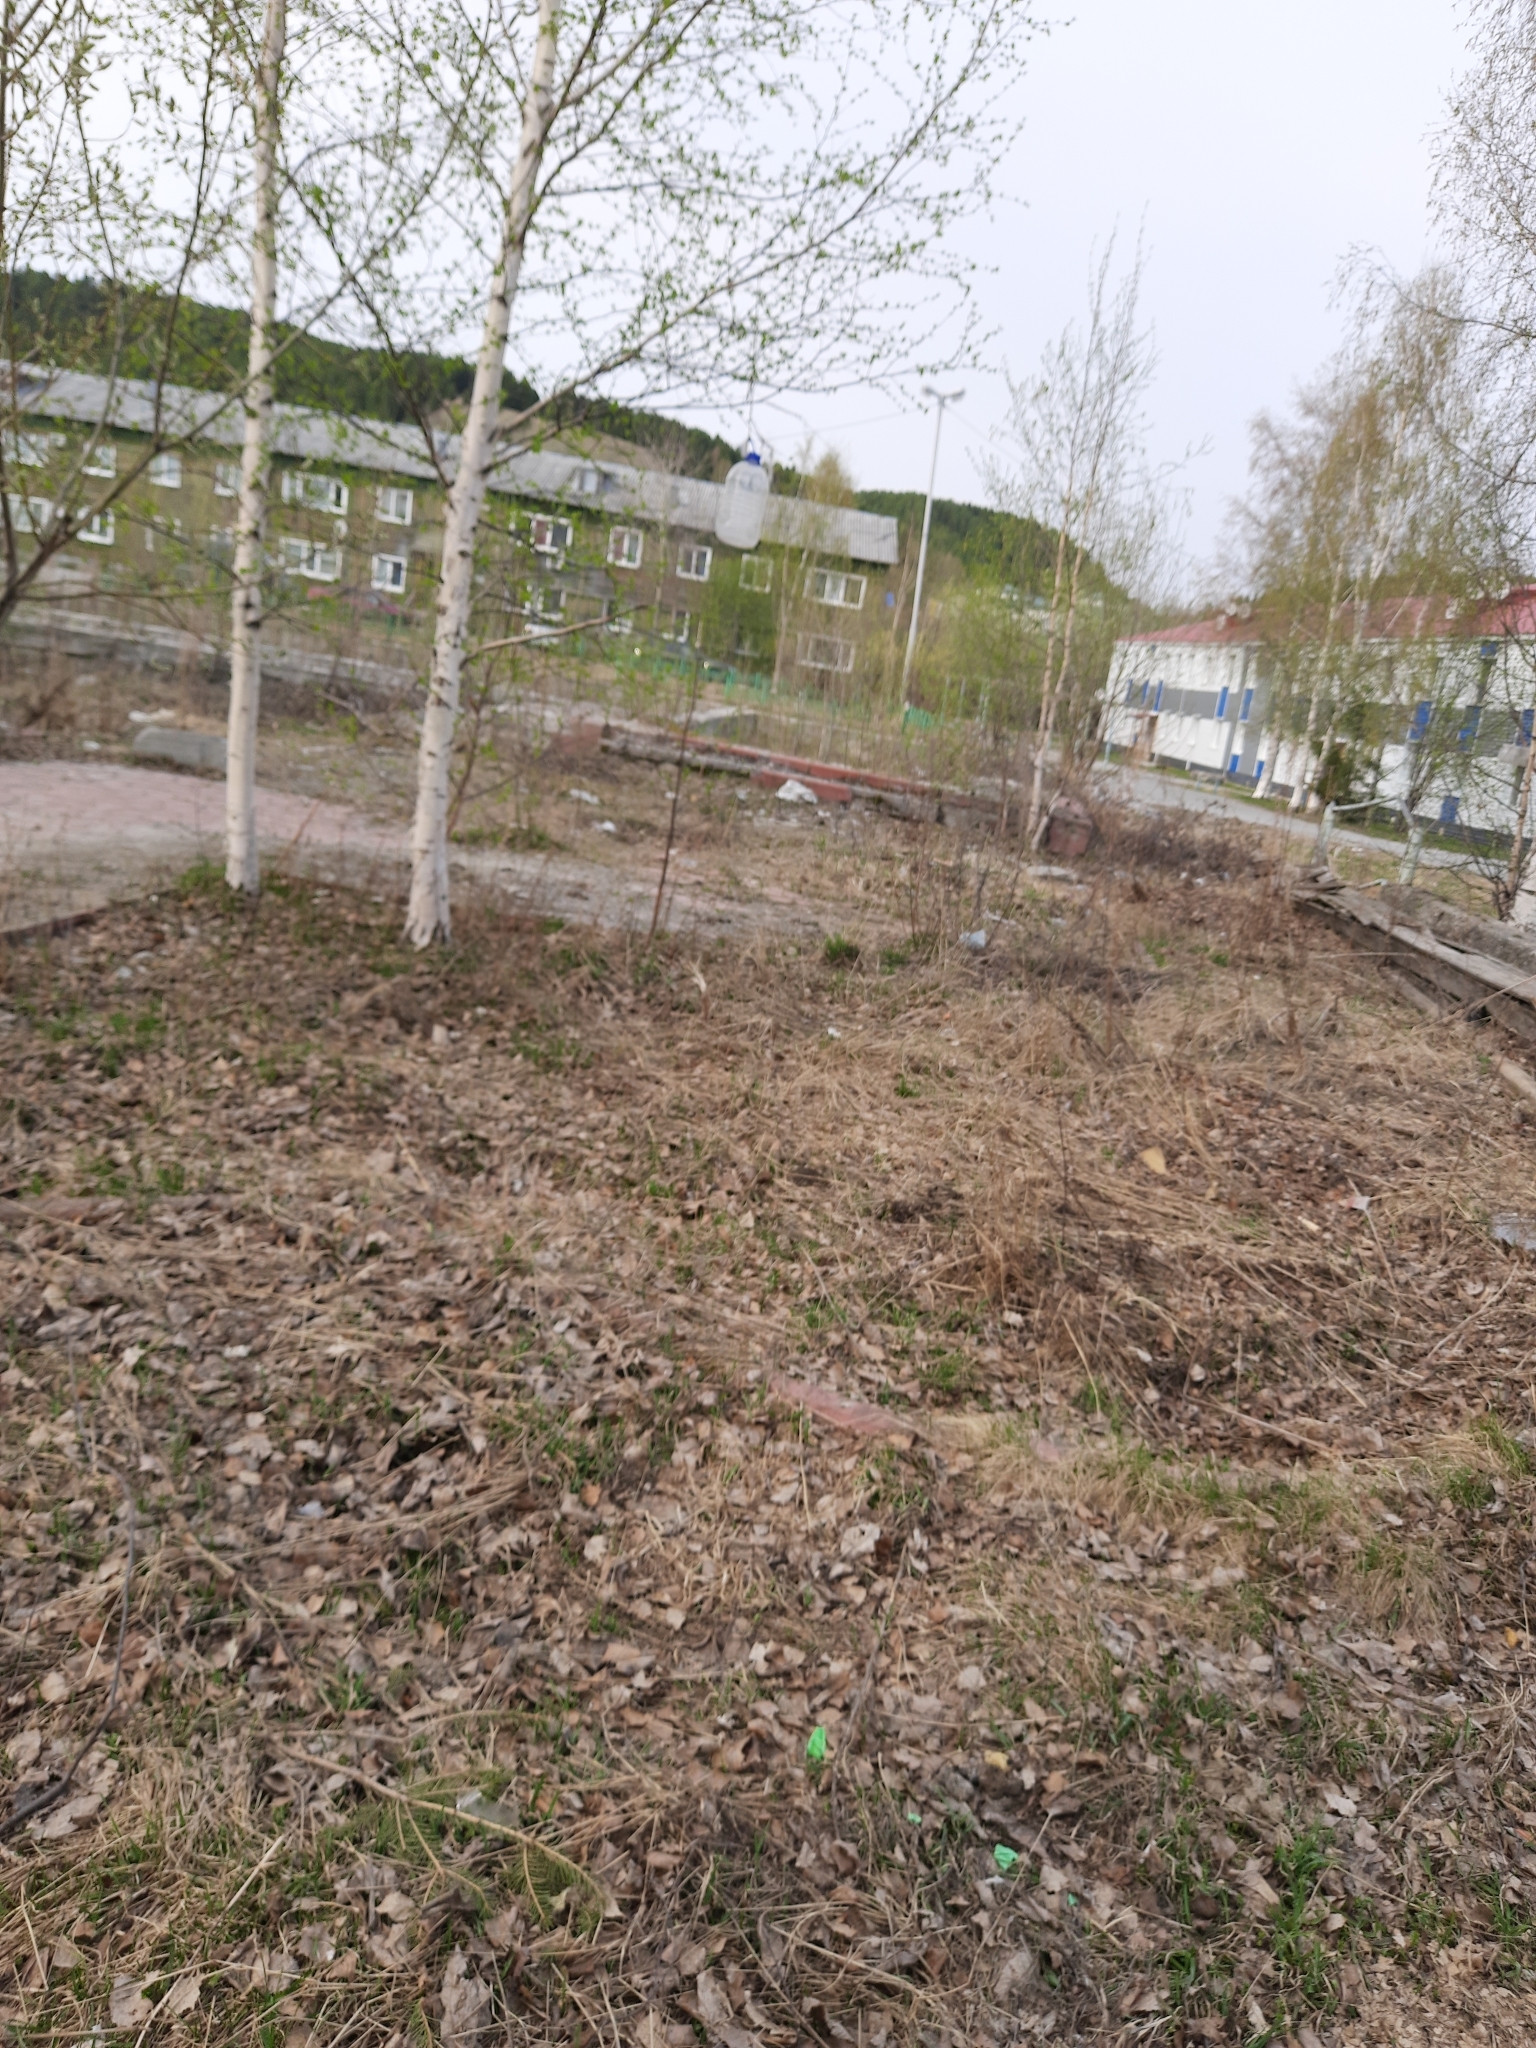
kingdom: Plantae
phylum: Tracheophyta
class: Magnoliopsida
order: Saxifragales
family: Paeoniaceae
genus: Paeonia
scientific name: Paeonia anomala
